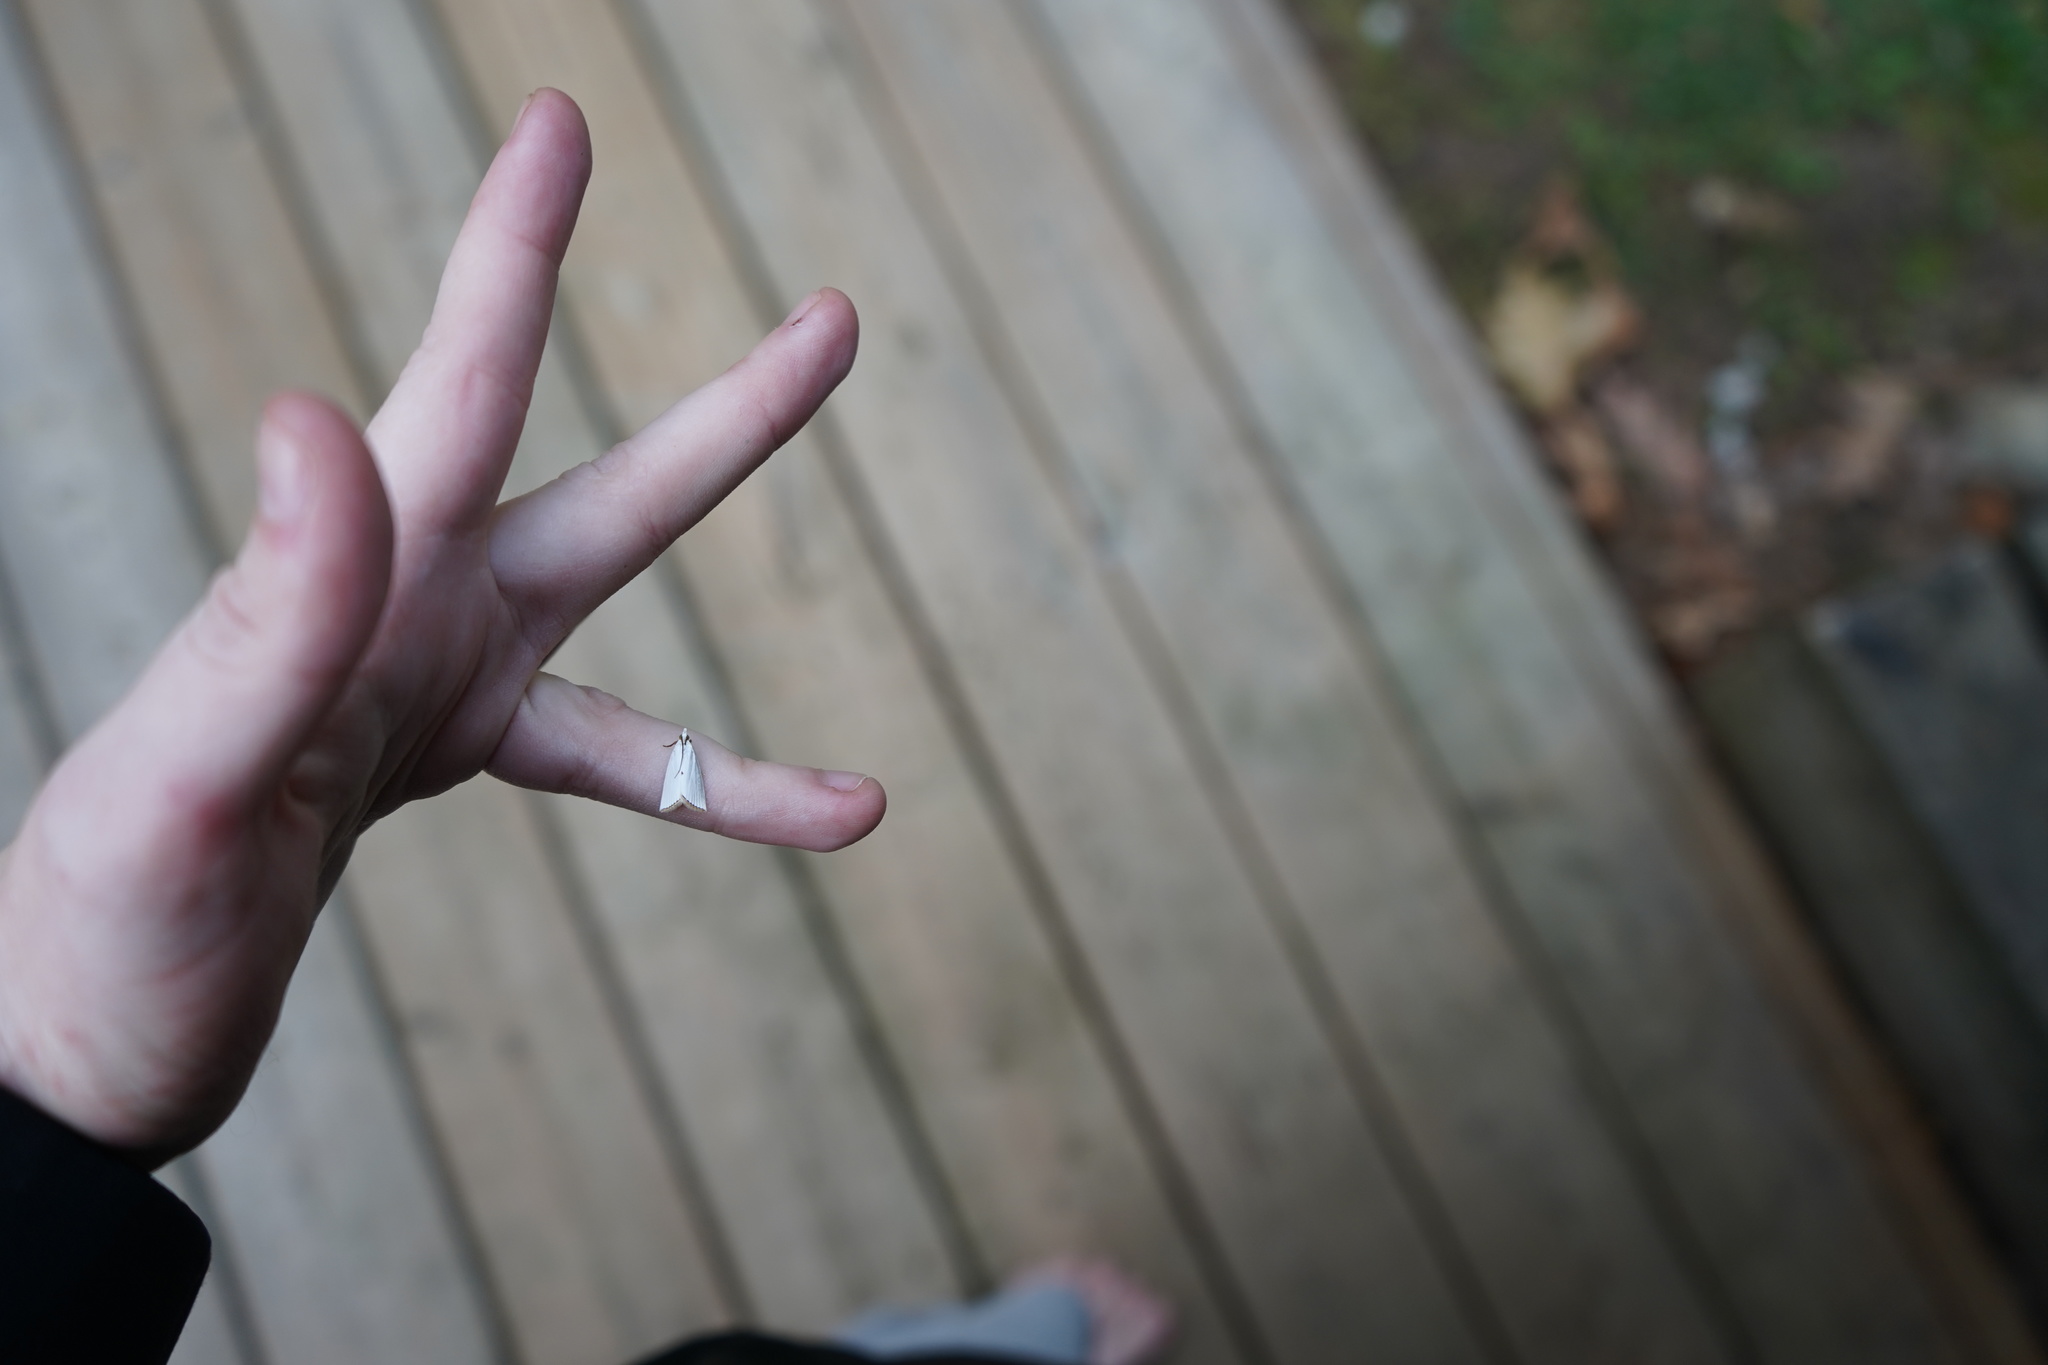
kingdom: Animalia
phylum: Arthropoda
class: Insecta
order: Lepidoptera
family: Crambidae
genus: Argyria
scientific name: Argyria nivalis
